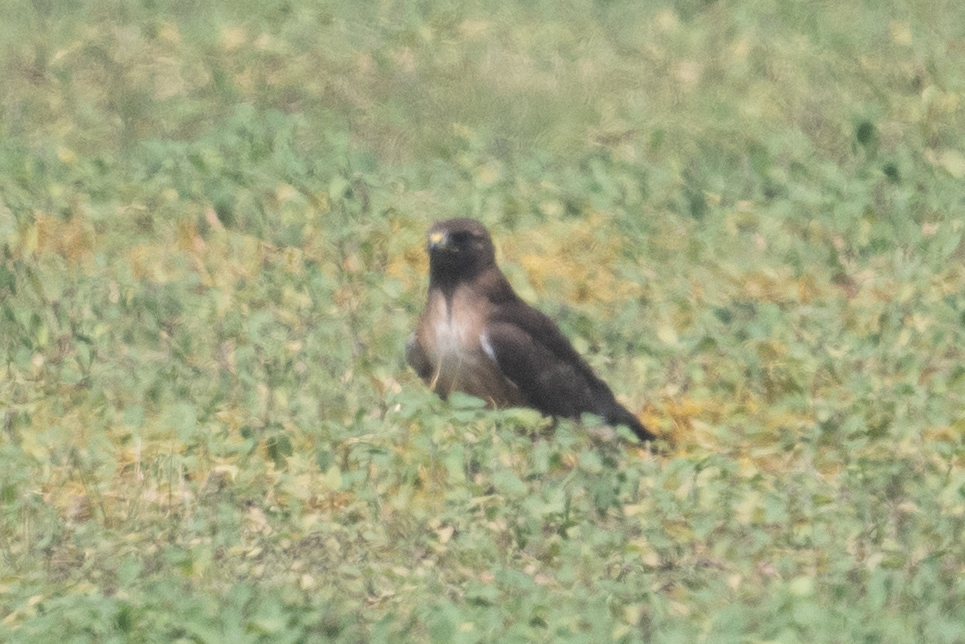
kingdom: Animalia
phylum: Chordata
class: Aves
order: Accipitriformes
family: Accipitridae
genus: Buteo
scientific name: Buteo swainsoni
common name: Swainson's hawk
